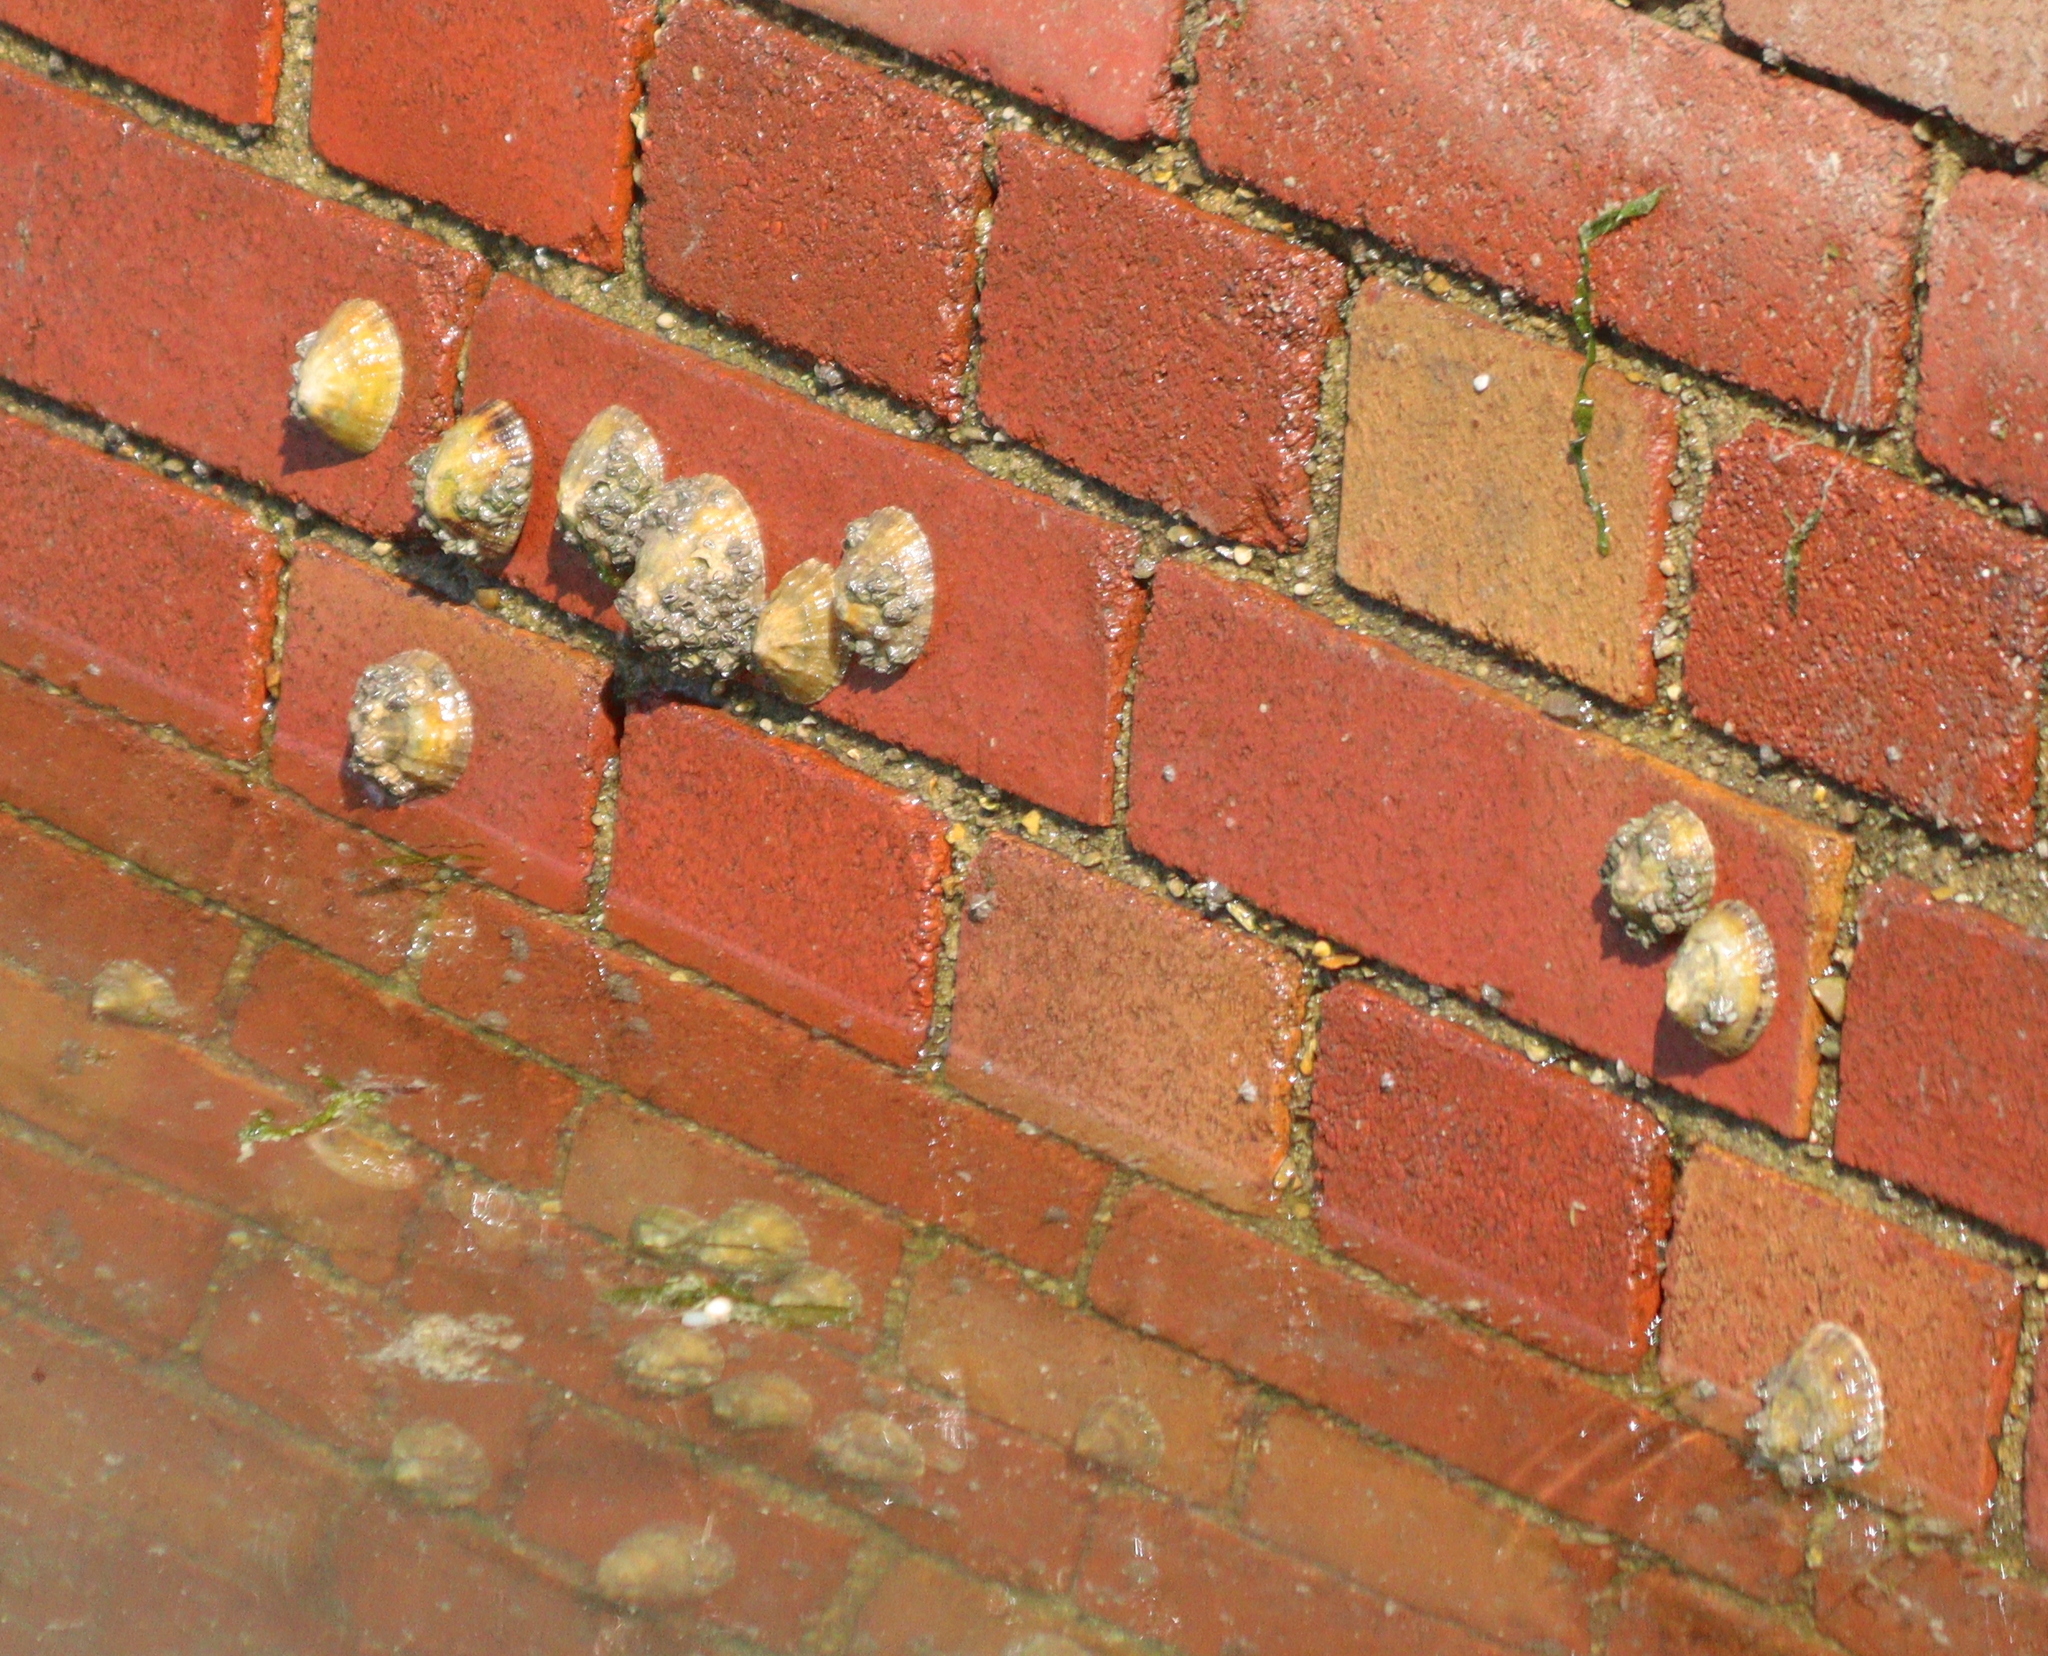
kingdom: Animalia
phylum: Mollusca
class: Gastropoda
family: Patellidae
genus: Patella
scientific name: Patella vulgata
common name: Common limpet
